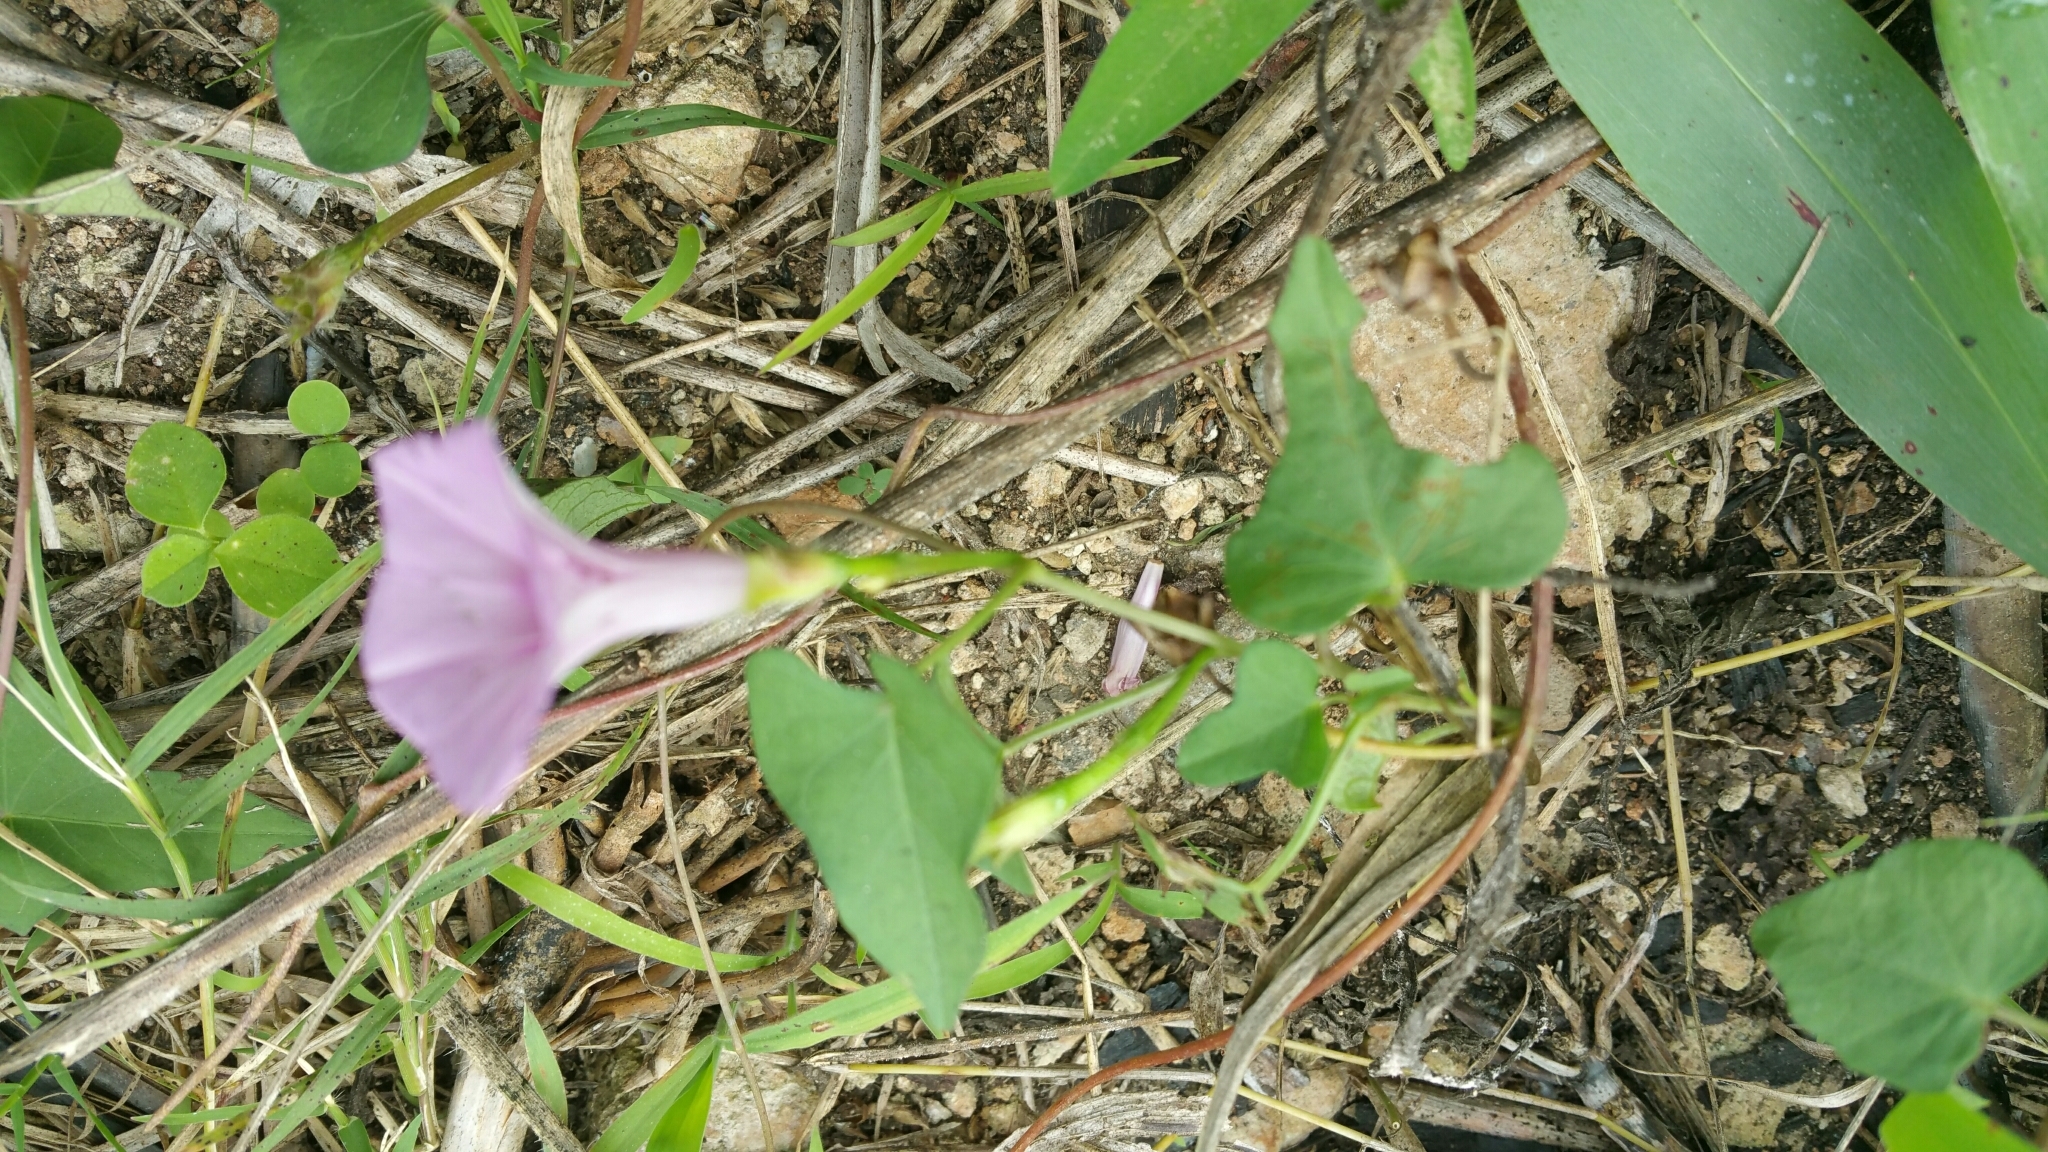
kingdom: Plantae
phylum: Tracheophyta
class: Magnoliopsida
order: Solanales
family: Convolvulaceae
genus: Ipomoea
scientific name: Ipomoea batatas
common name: Sweet-potato
